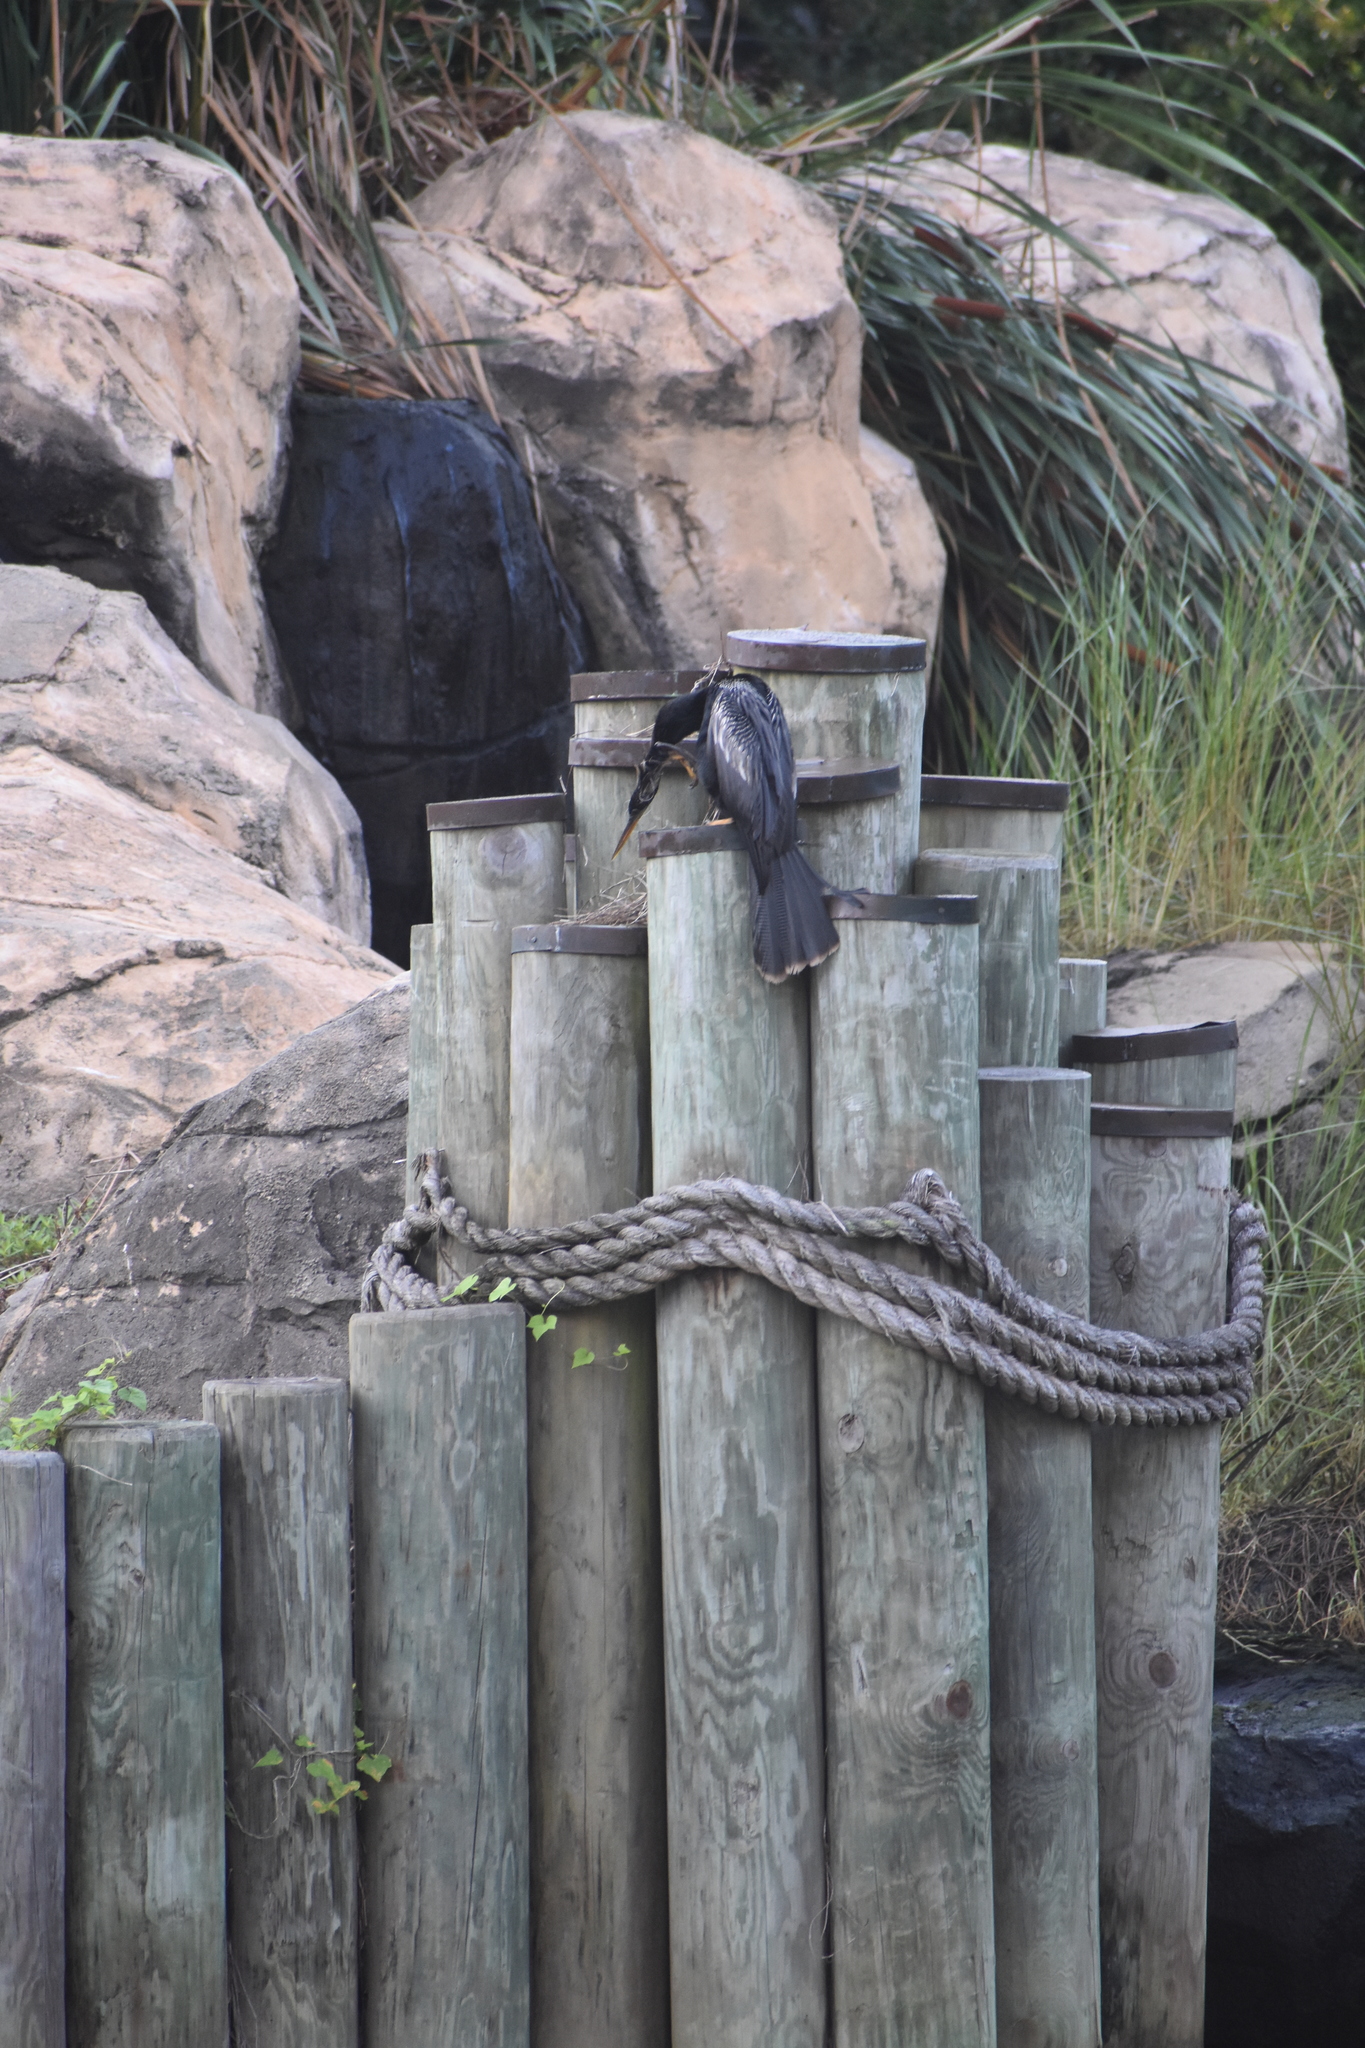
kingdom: Animalia
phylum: Chordata
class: Aves
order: Suliformes
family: Anhingidae
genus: Anhinga
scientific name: Anhinga anhinga
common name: Anhinga
